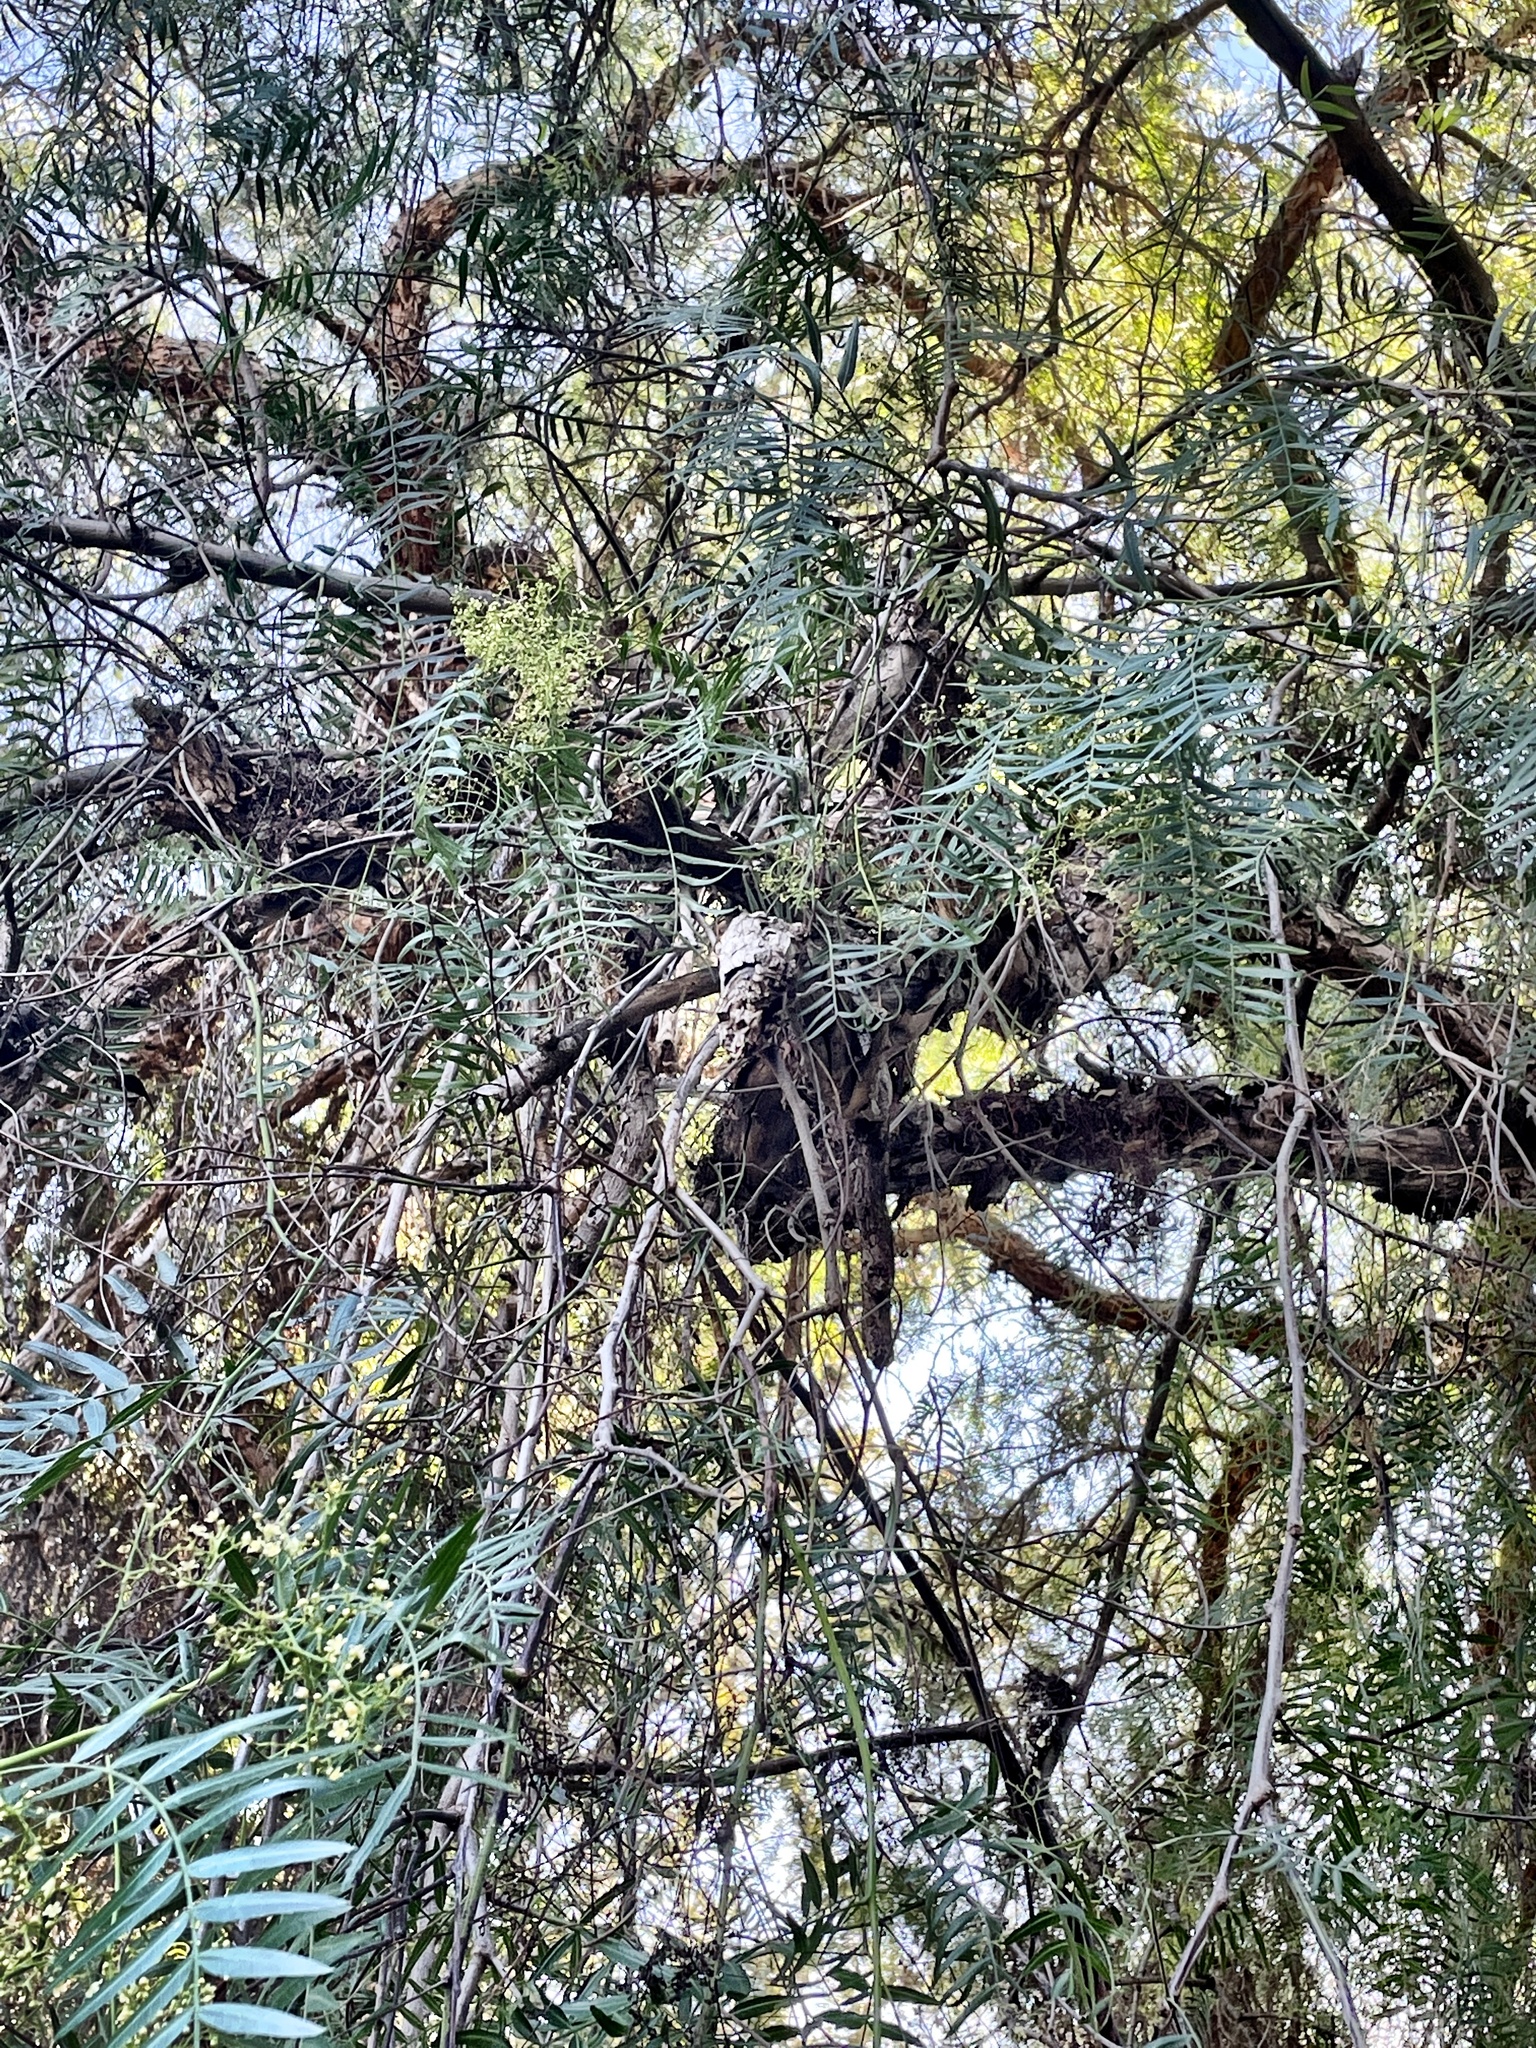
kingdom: Plantae
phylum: Tracheophyta
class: Magnoliopsida
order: Sapindales
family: Anacardiaceae
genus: Schinus
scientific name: Schinus molle
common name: Peruvian peppertree
